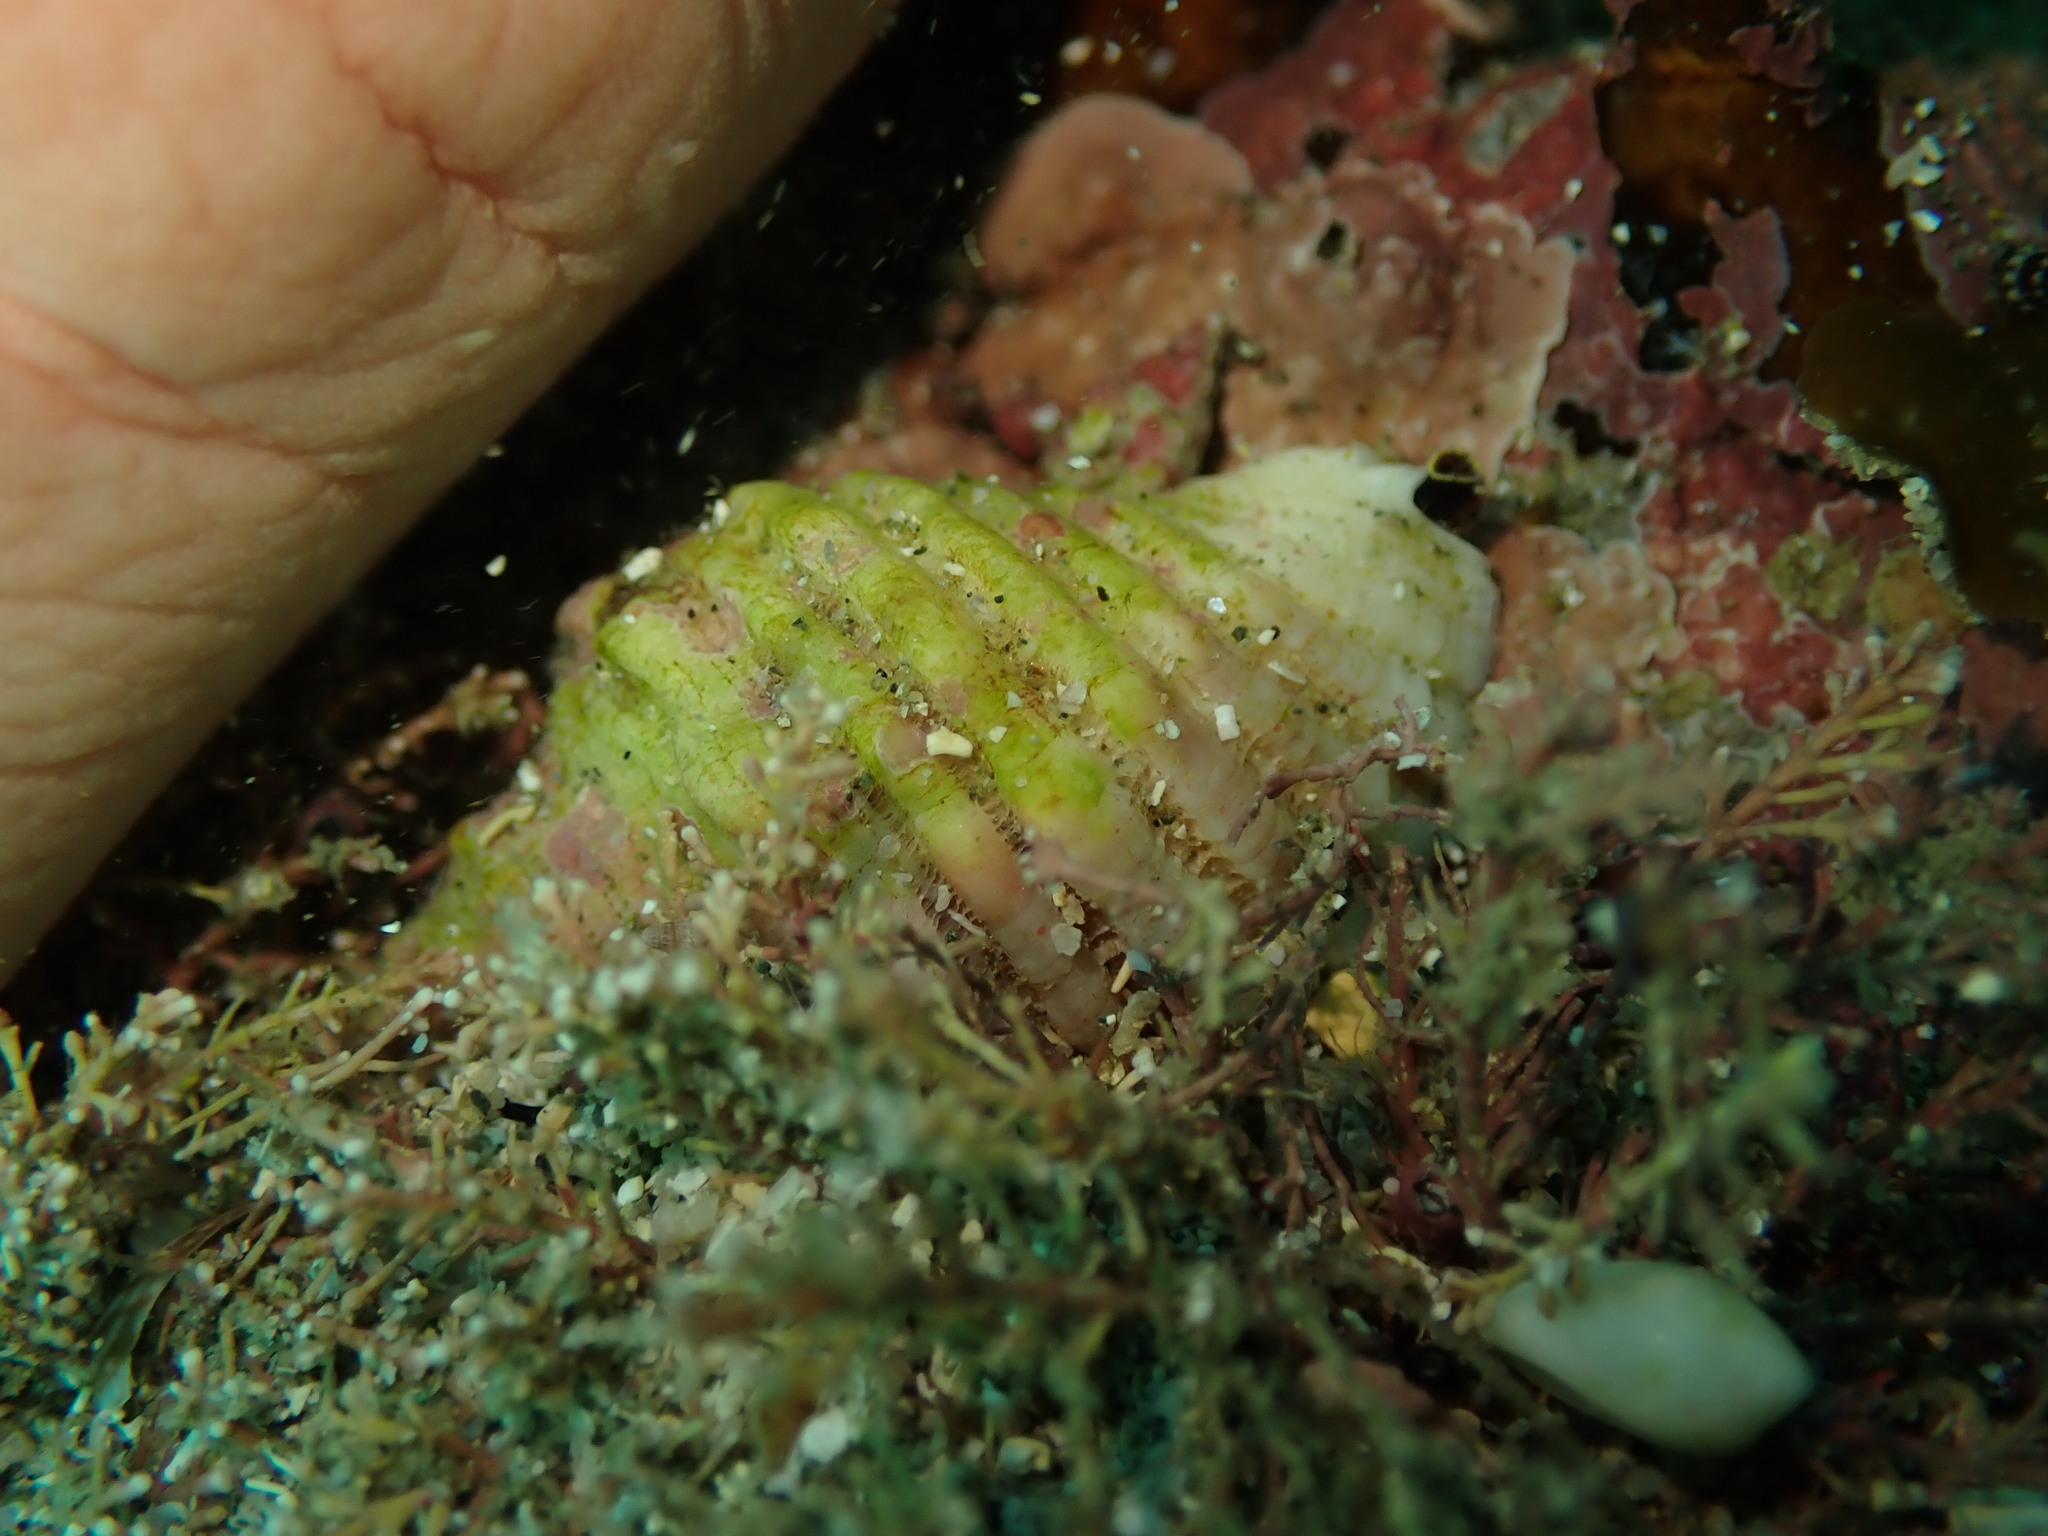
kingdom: Animalia
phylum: Mollusca
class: Gastropoda
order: Neogastropoda
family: Muricidae
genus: Dicathais
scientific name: Dicathais orbita
